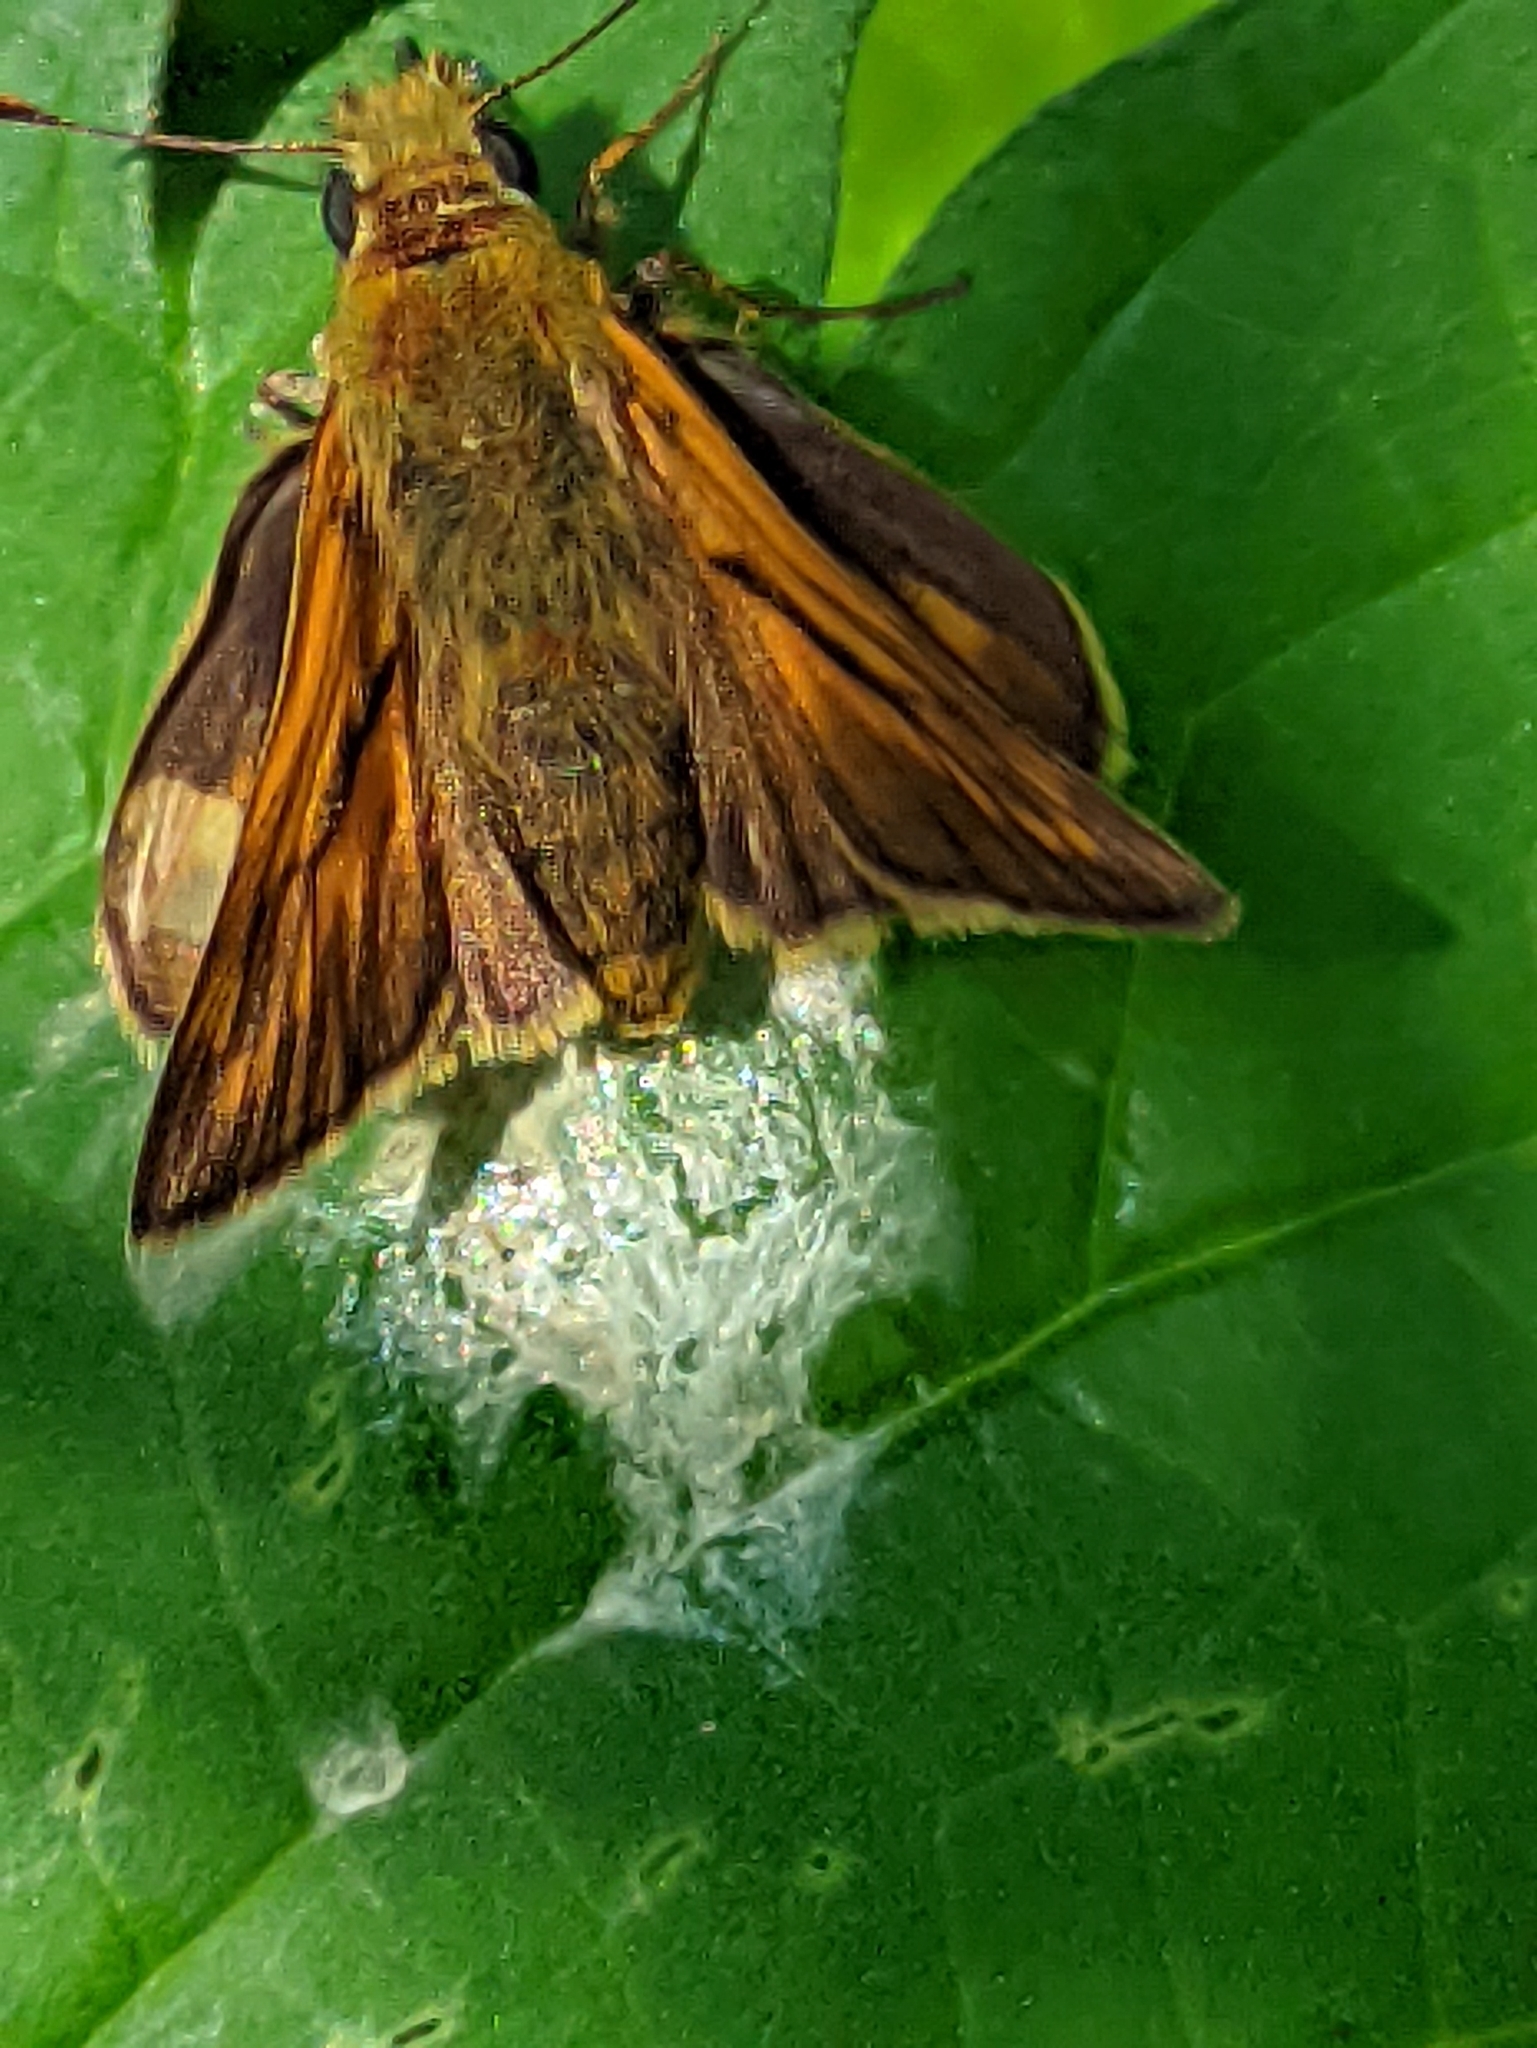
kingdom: Animalia
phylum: Arthropoda
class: Insecta
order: Lepidoptera
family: Hesperiidae
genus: Ochlodes
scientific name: Ochlodes venata
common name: Large skipper
